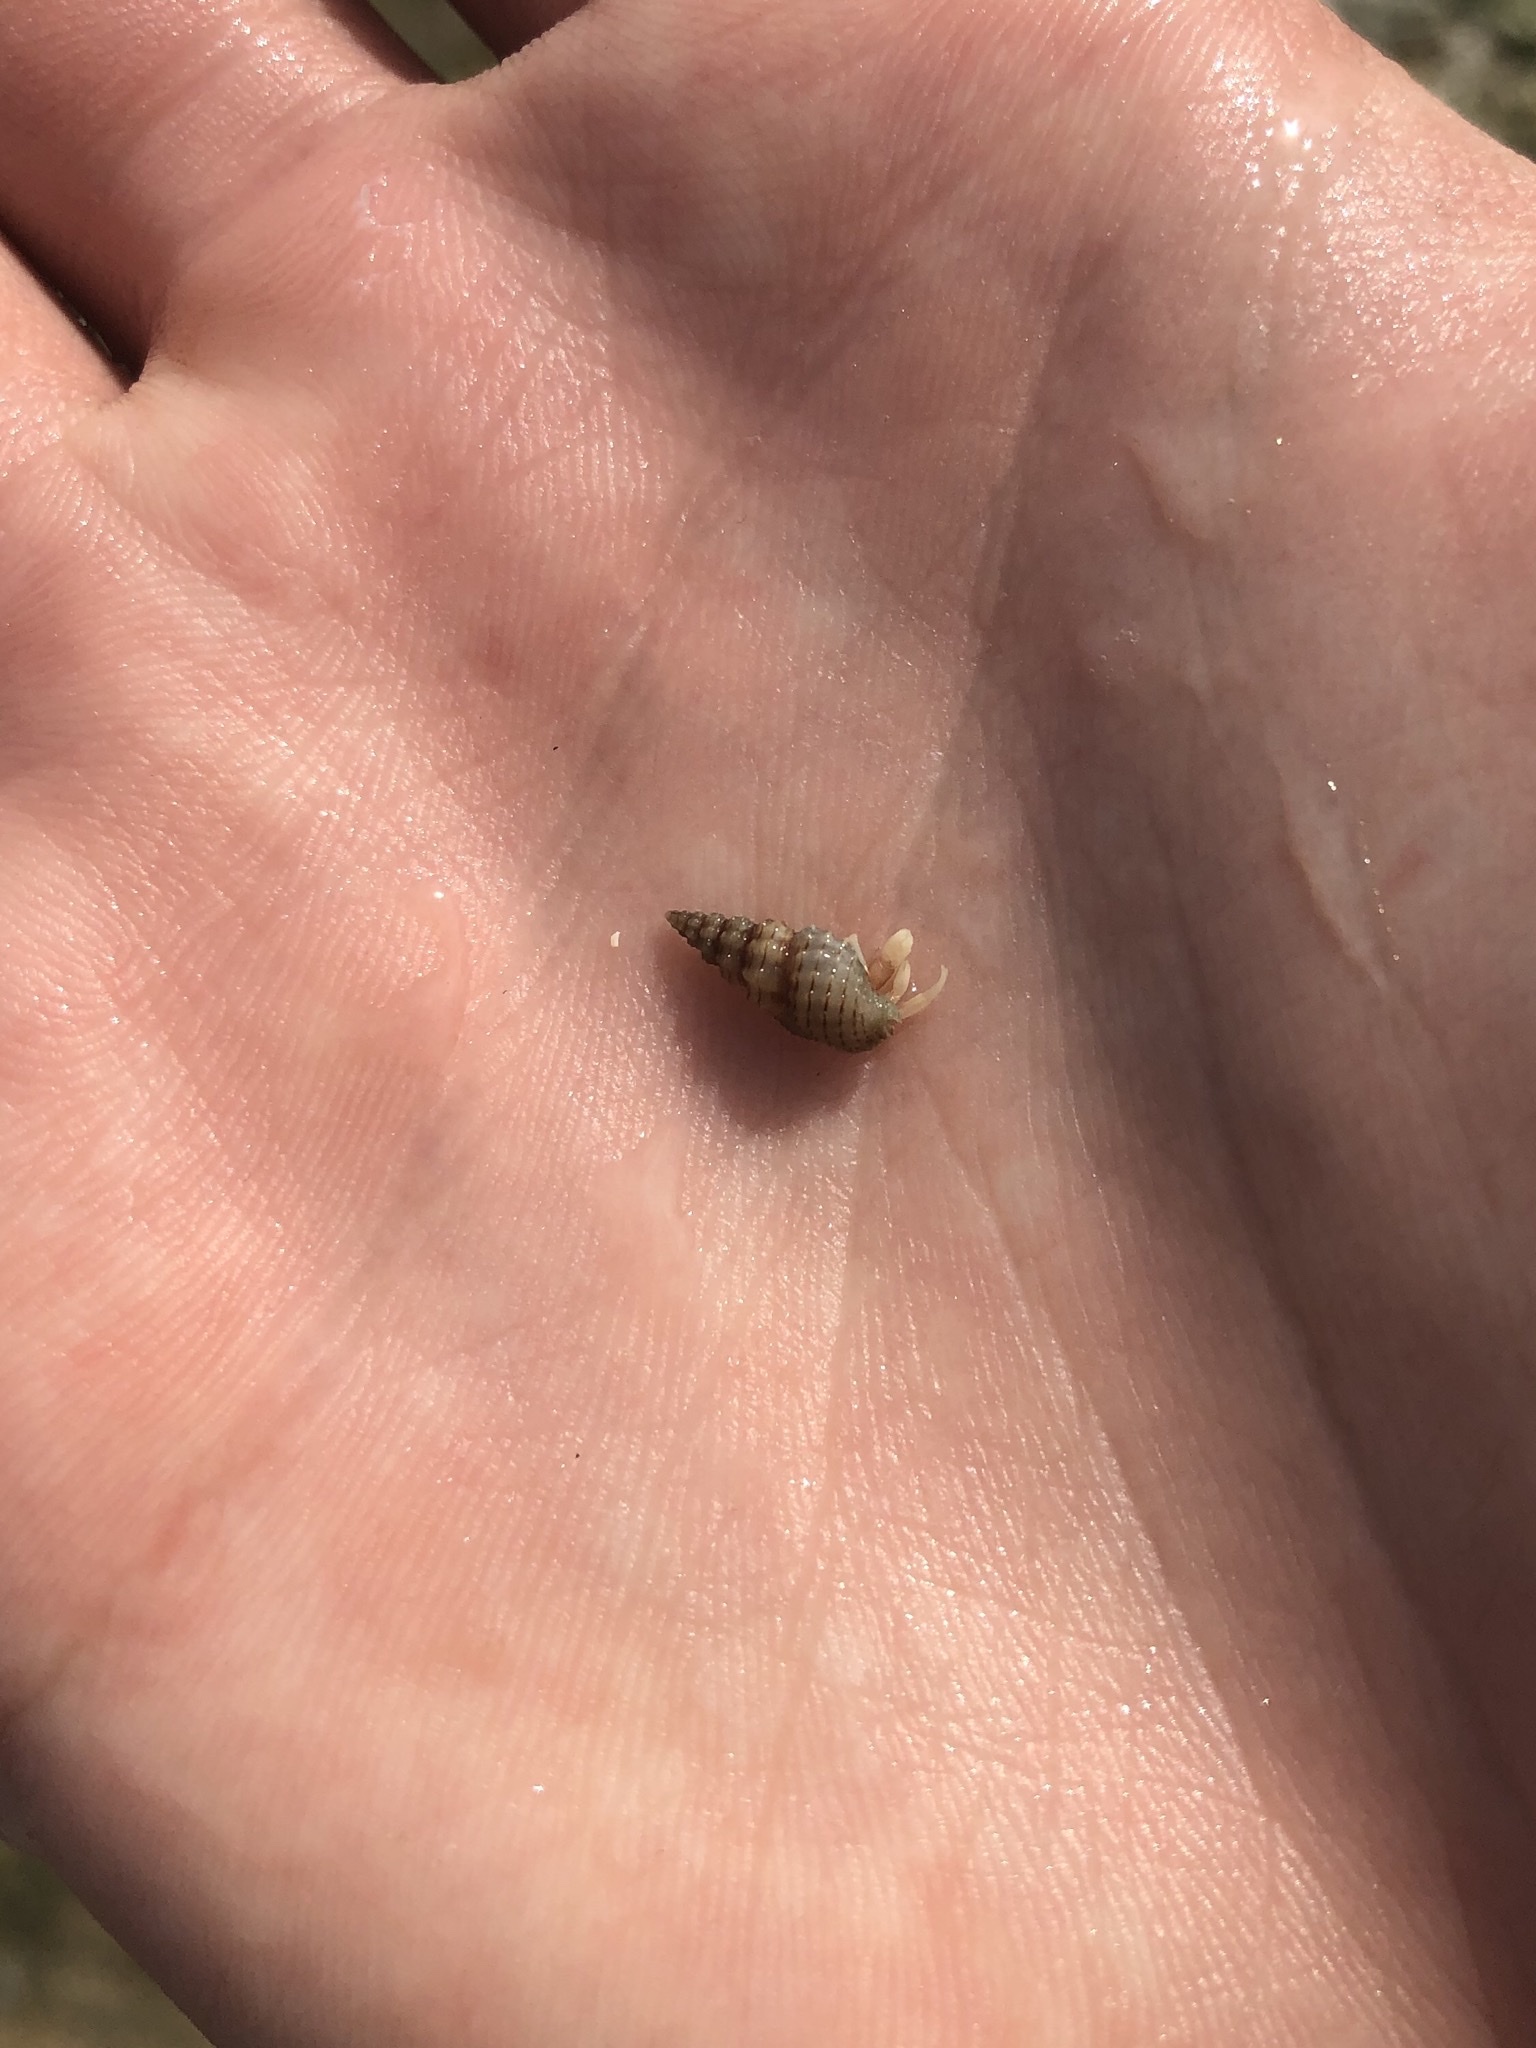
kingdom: Animalia
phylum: Arthropoda
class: Malacostraca
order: Decapoda
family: Paguridae
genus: Pagurus
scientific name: Pagurus longicarpus
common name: Long-armed hermit crab
